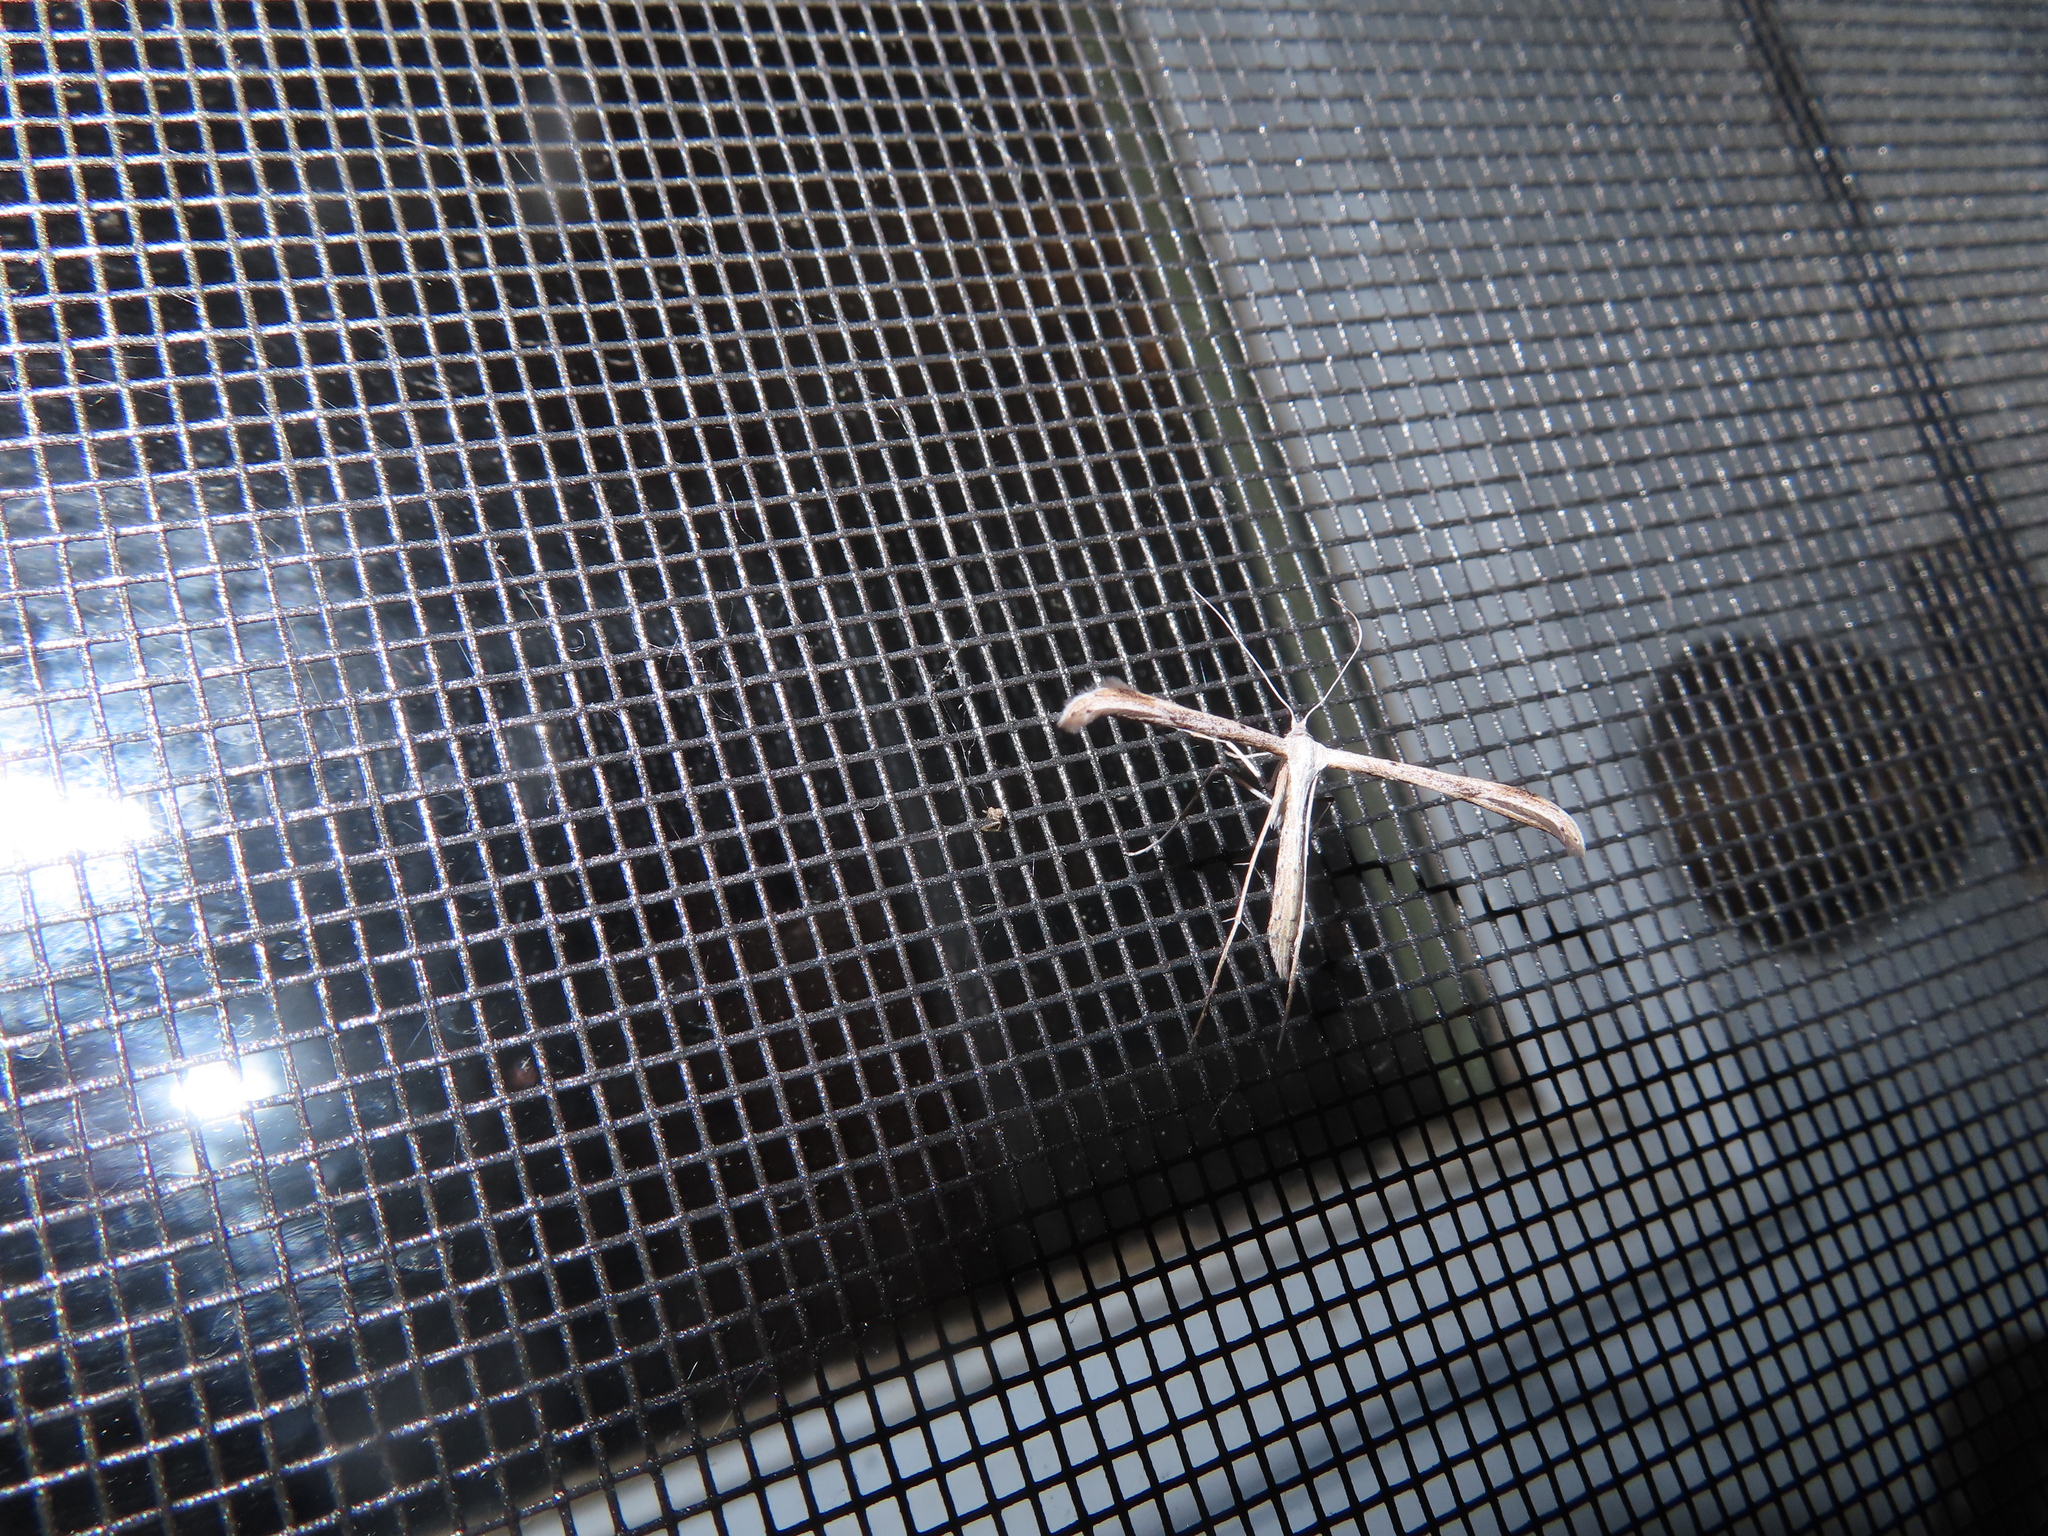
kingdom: Animalia
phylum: Arthropoda
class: Insecta
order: Lepidoptera
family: Pterophoridae
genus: Emmelina
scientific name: Emmelina monodactyla
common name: Common plume
